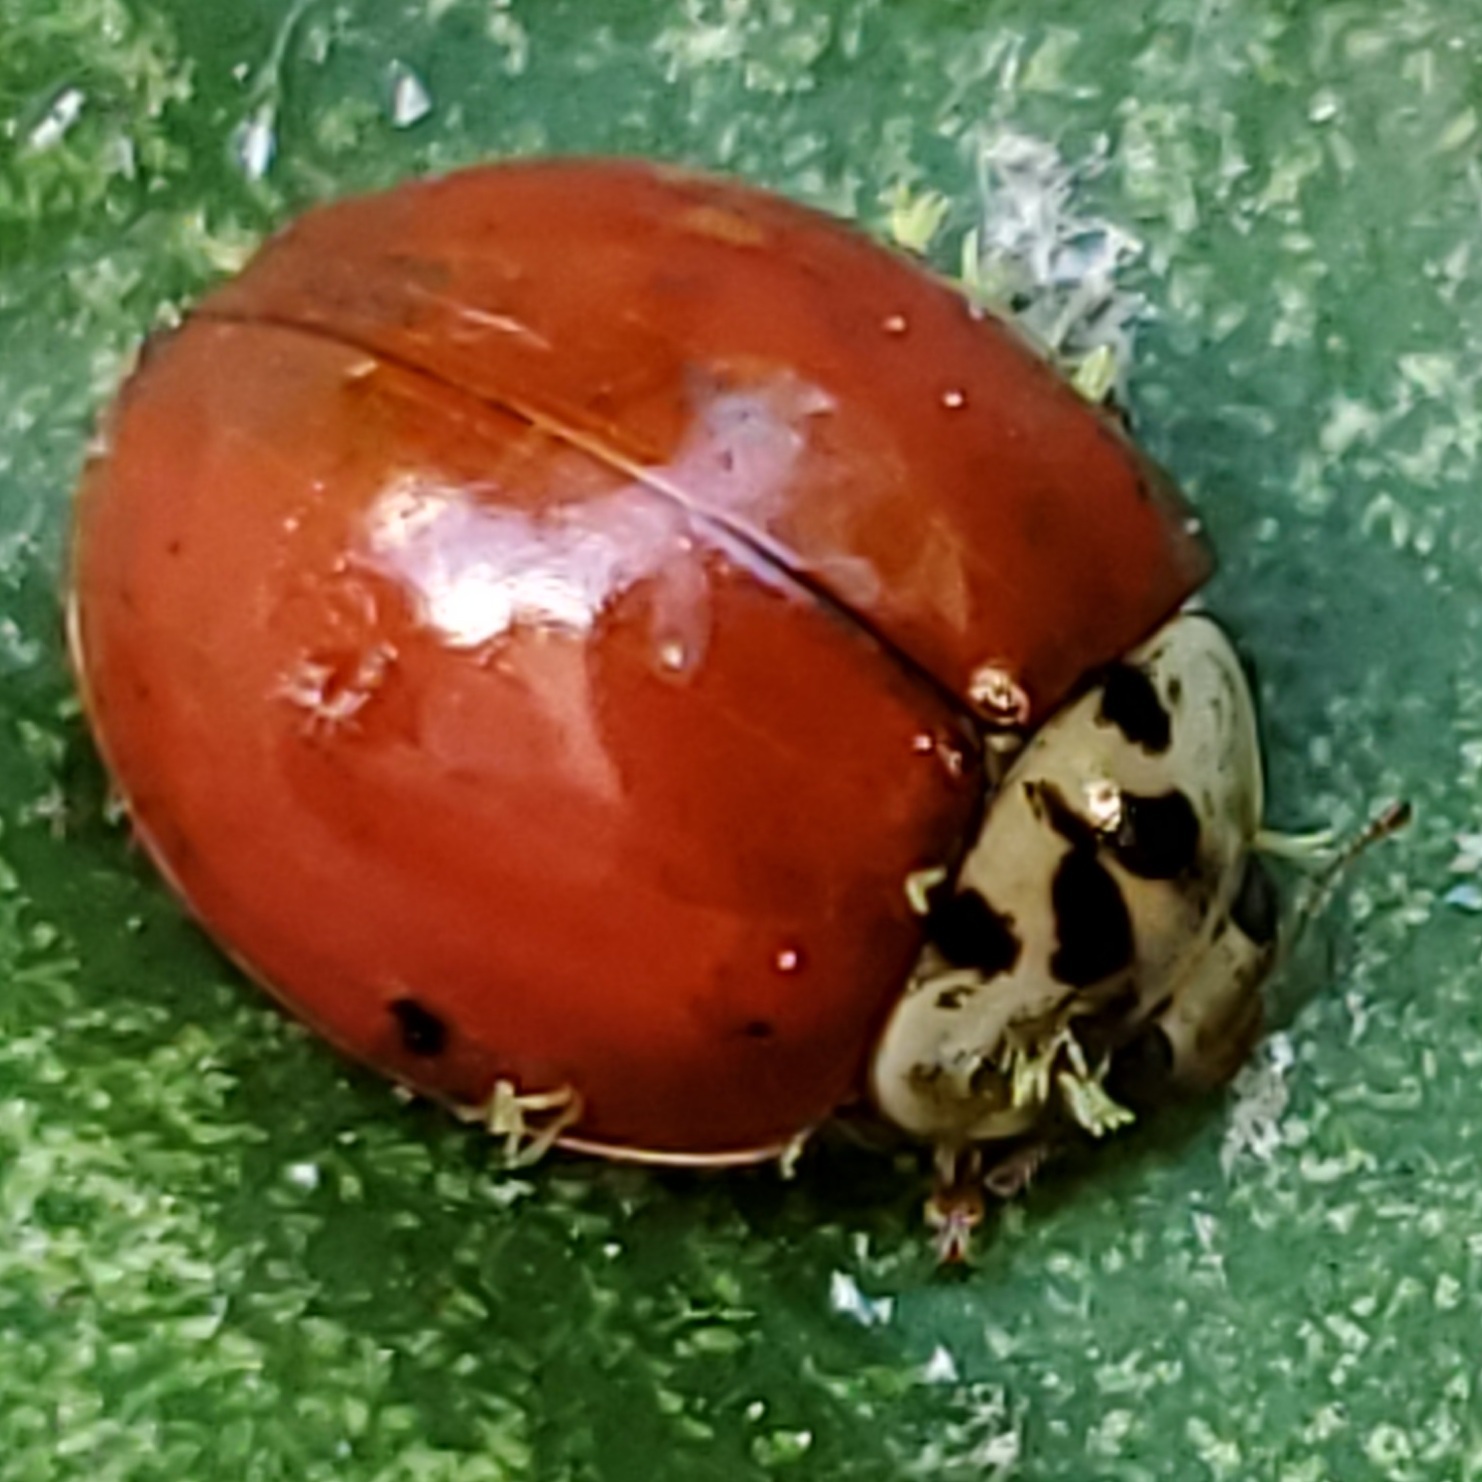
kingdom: Fungi
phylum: Ascomycota
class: Laboulbeniomycetes
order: Laboulbeniales
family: Laboulbeniaceae
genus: Hesperomyces
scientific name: Hesperomyces harmoniae
